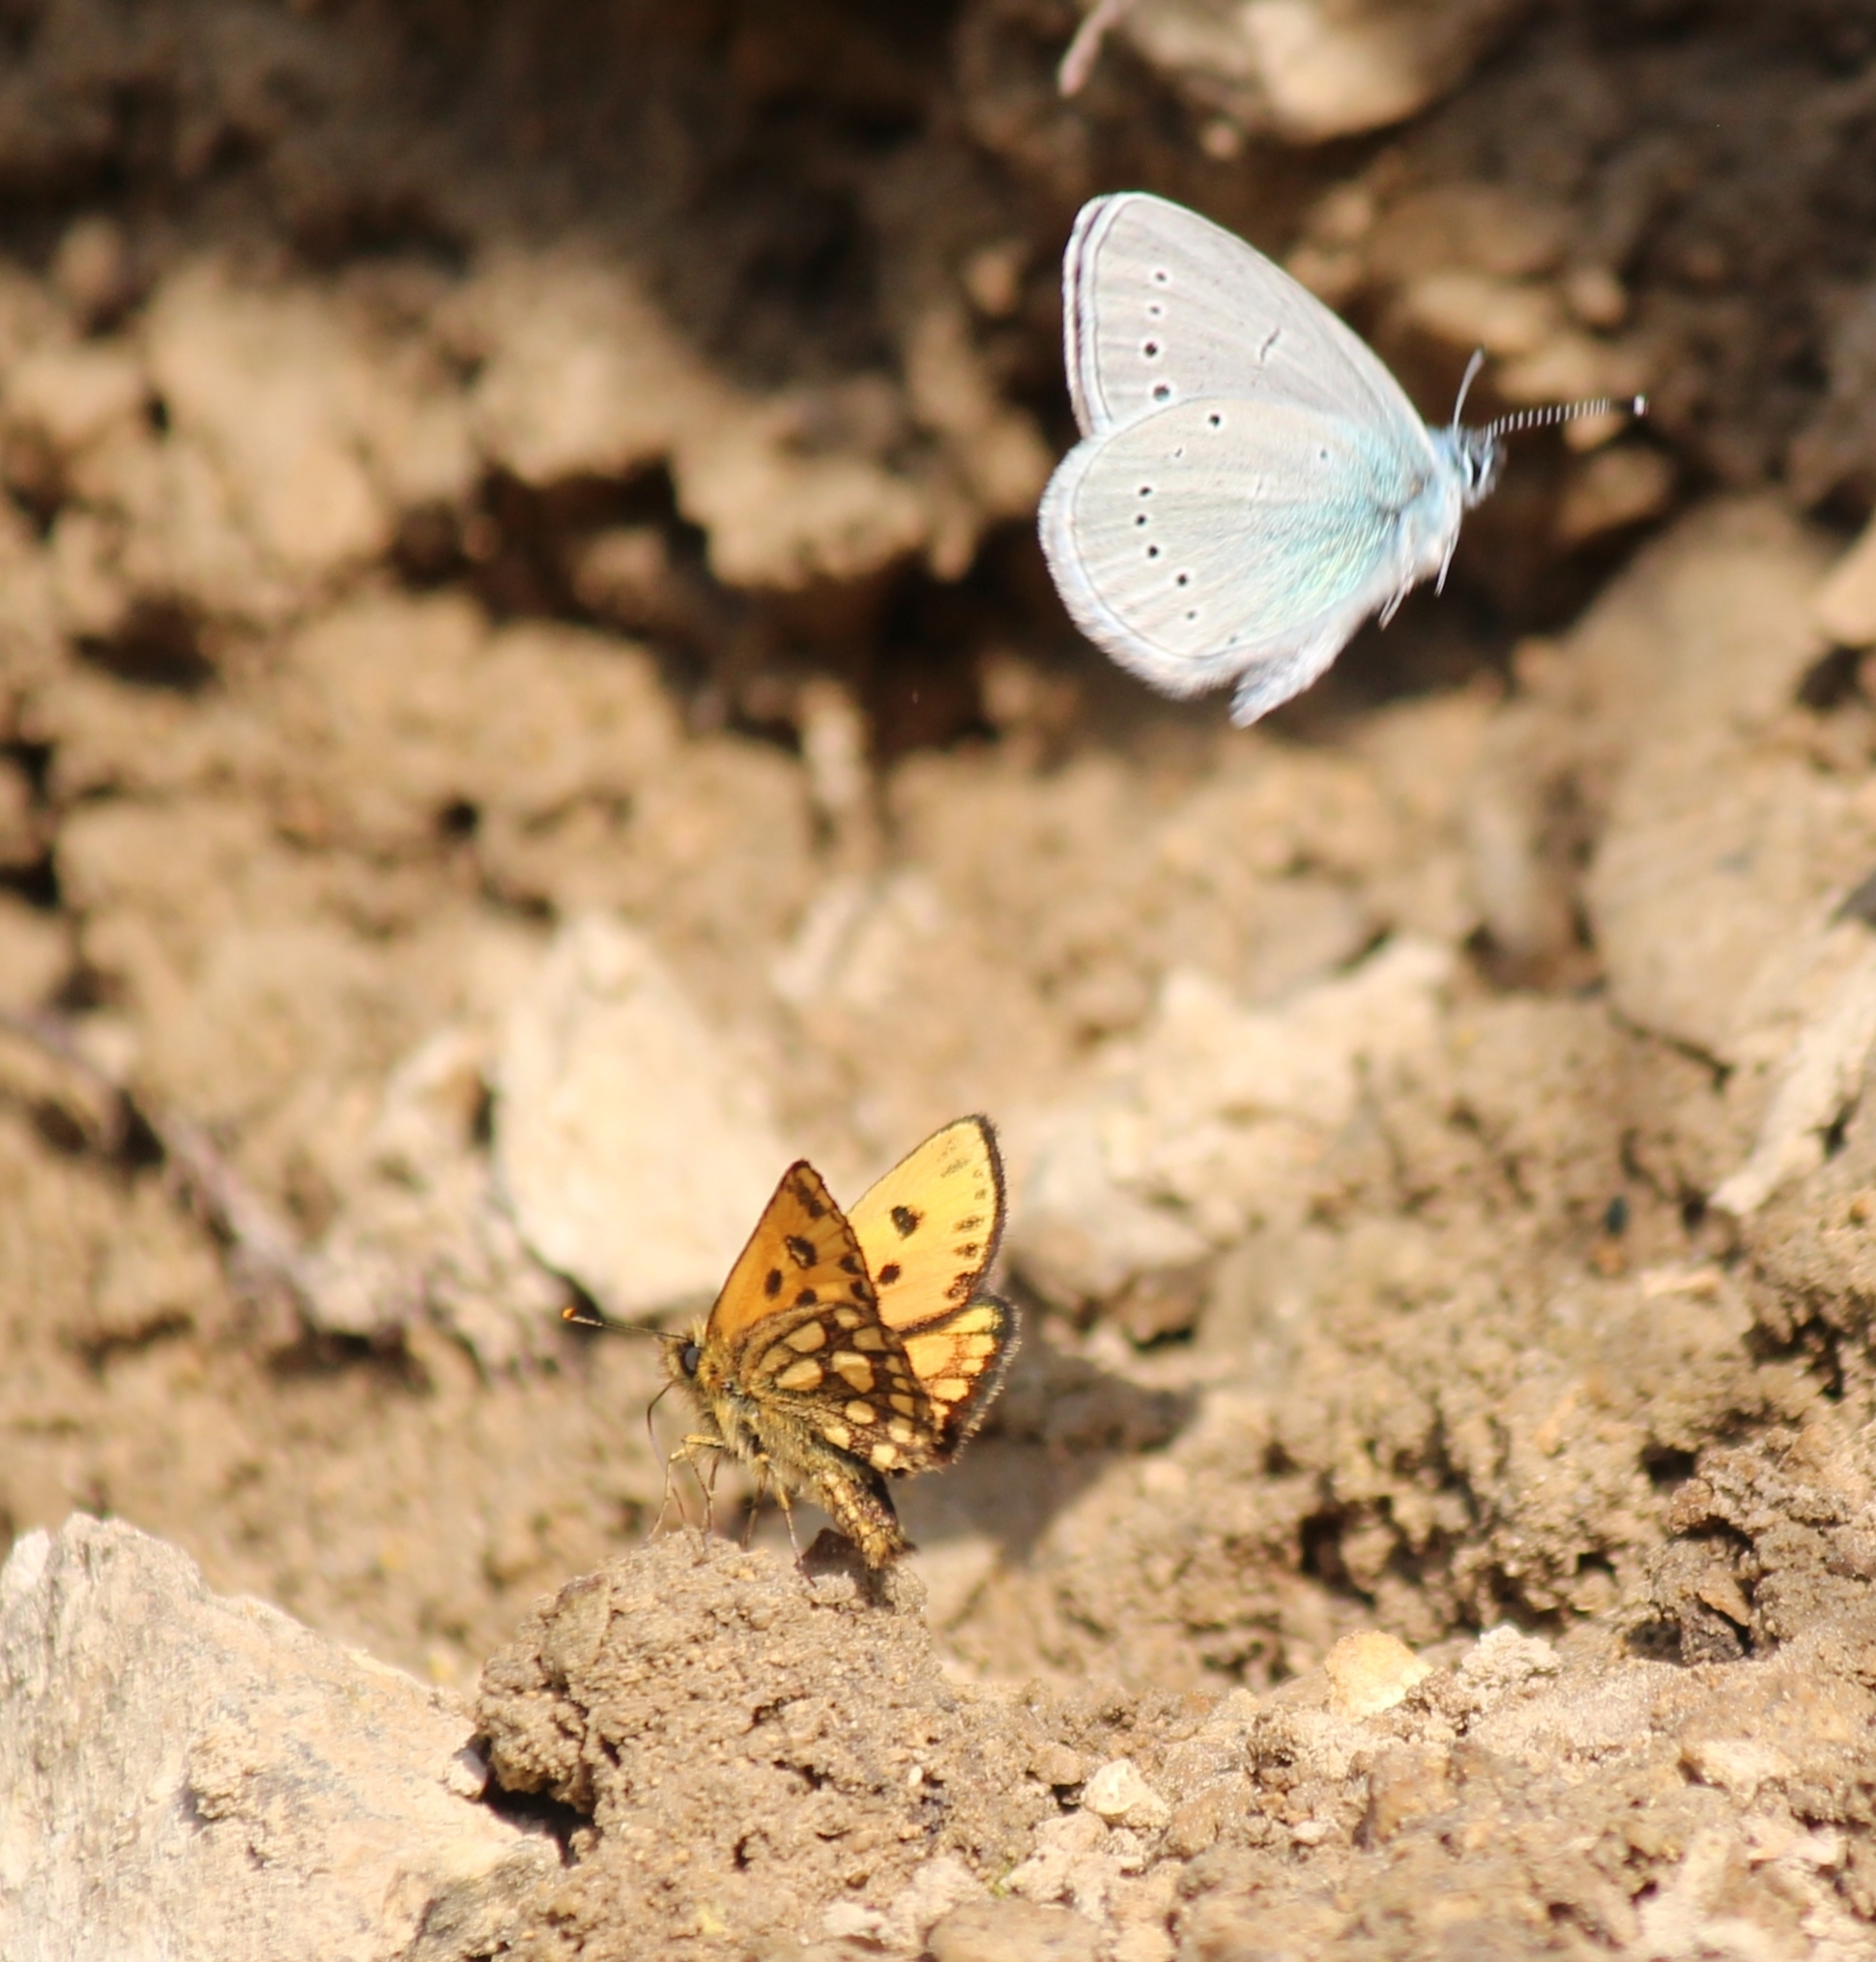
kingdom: Animalia
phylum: Arthropoda
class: Insecta
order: Lepidoptera
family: Hesperiidae
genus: Carterocephalus
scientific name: Carterocephalus silvicola
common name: Northern chequered skipper
